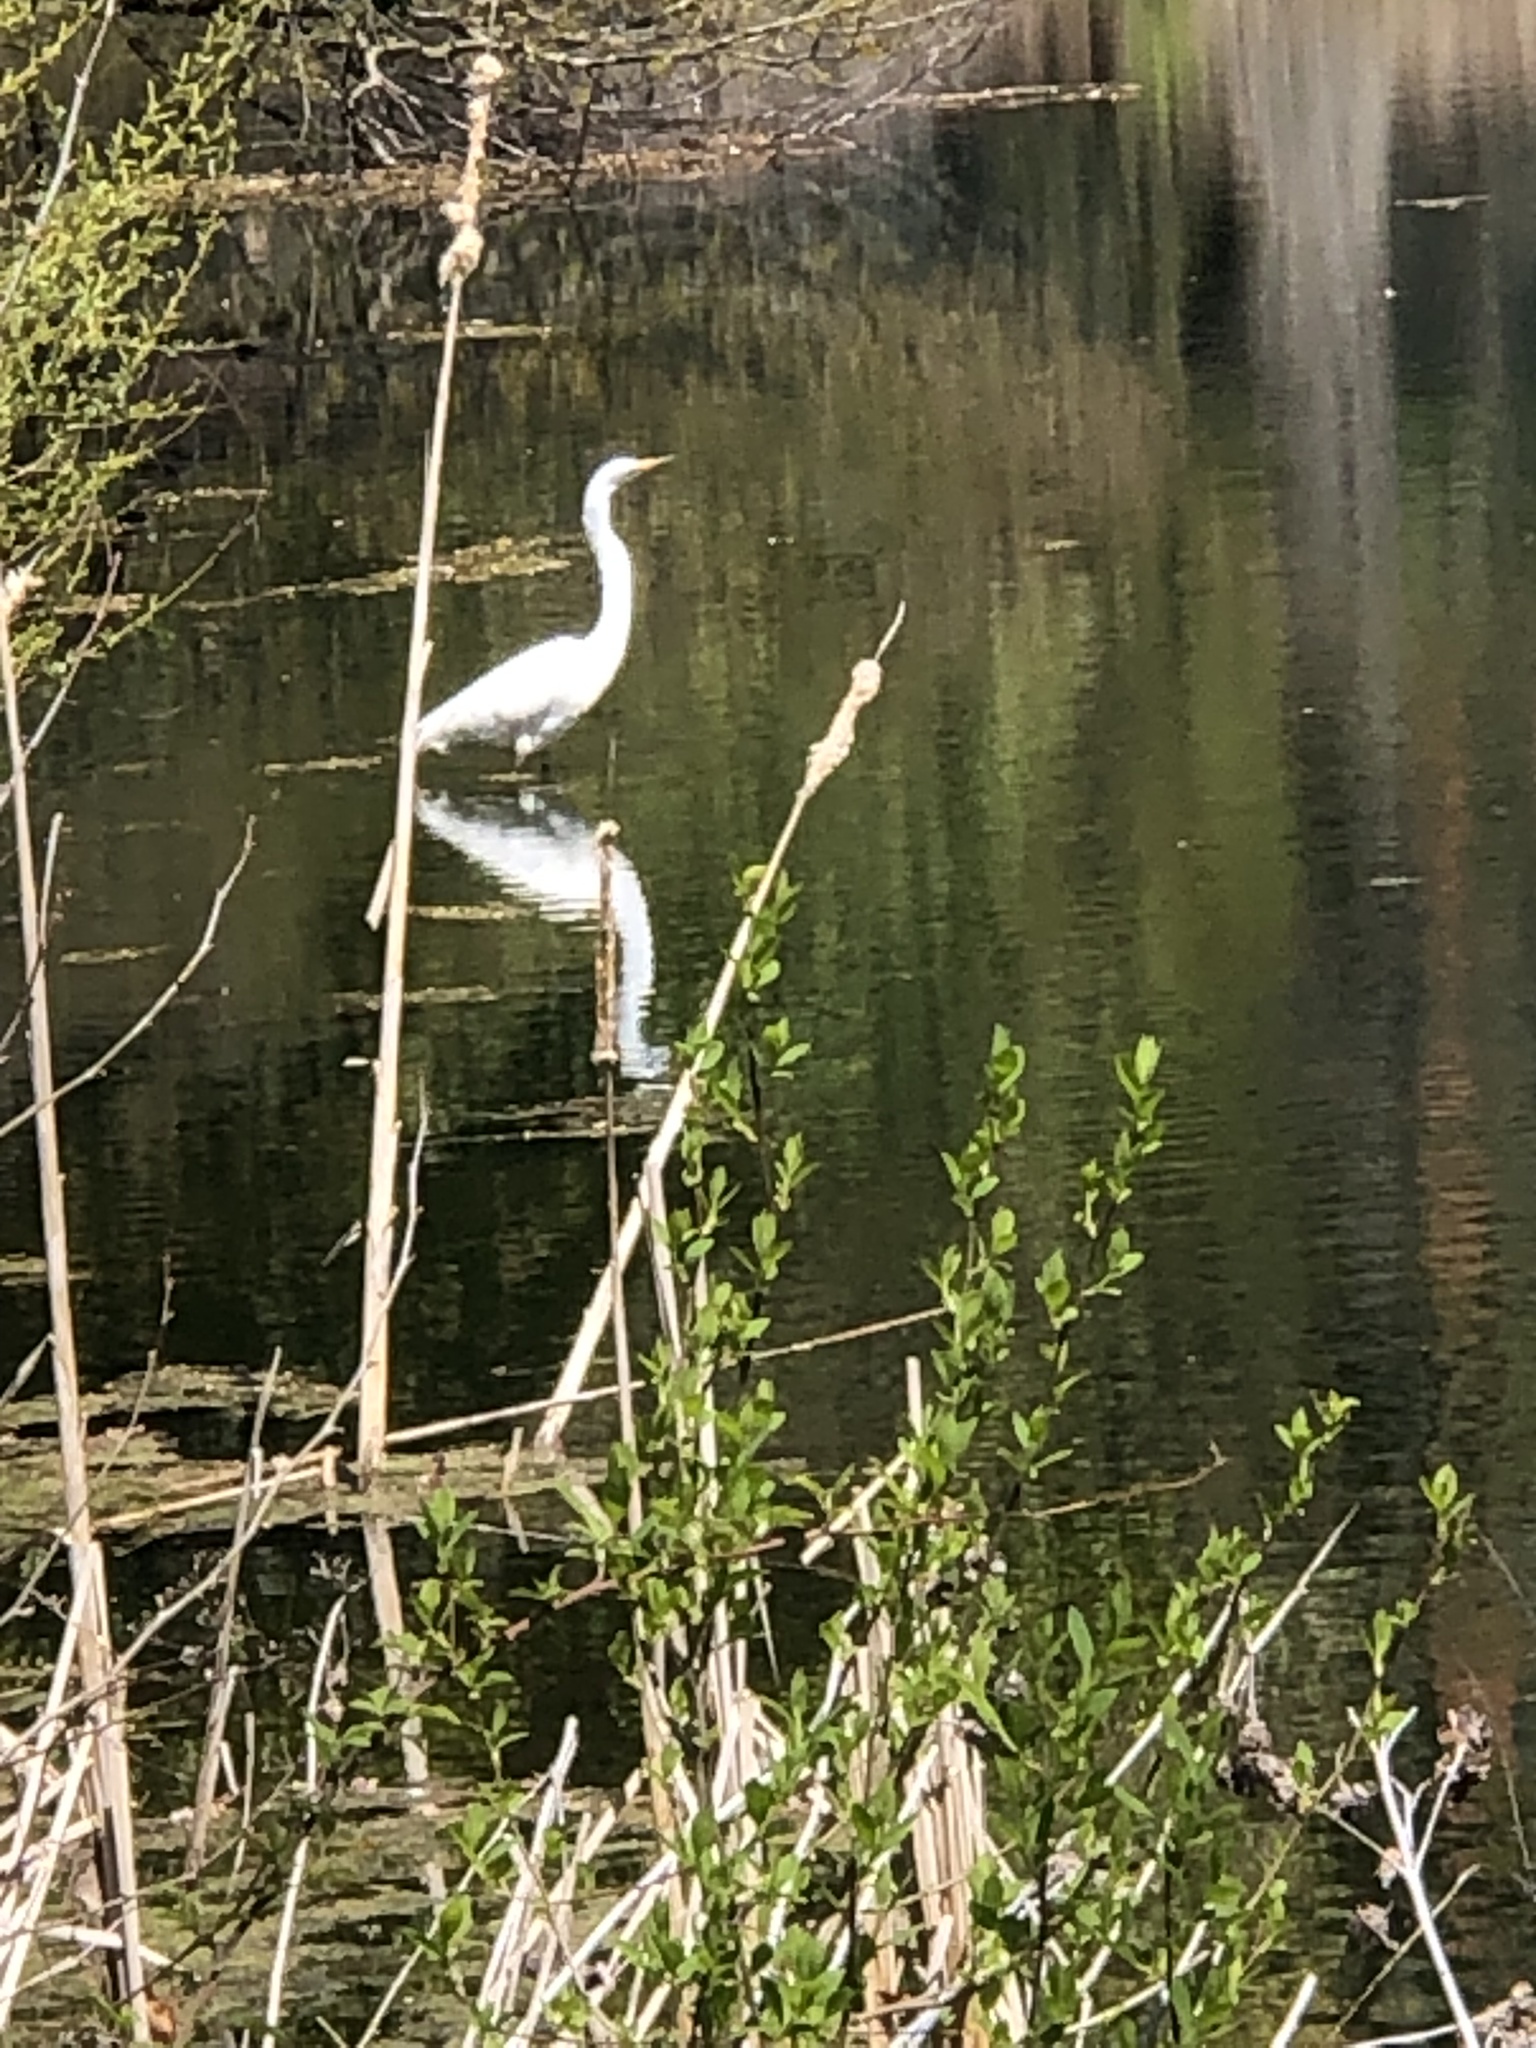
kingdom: Animalia
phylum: Chordata
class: Aves
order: Pelecaniformes
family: Ardeidae
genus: Ardea
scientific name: Ardea alba
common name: Great egret
